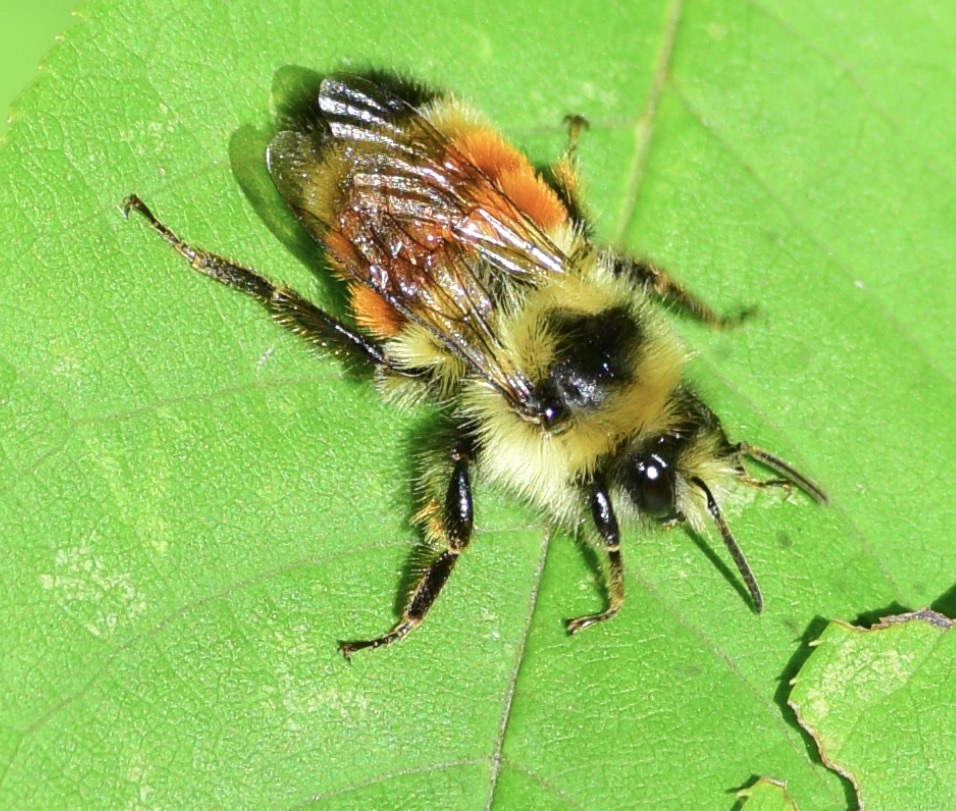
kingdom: Animalia
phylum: Arthropoda
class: Insecta
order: Hymenoptera
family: Apidae
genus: Bombus
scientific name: Bombus ternarius
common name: Tri-colored bumble bee
